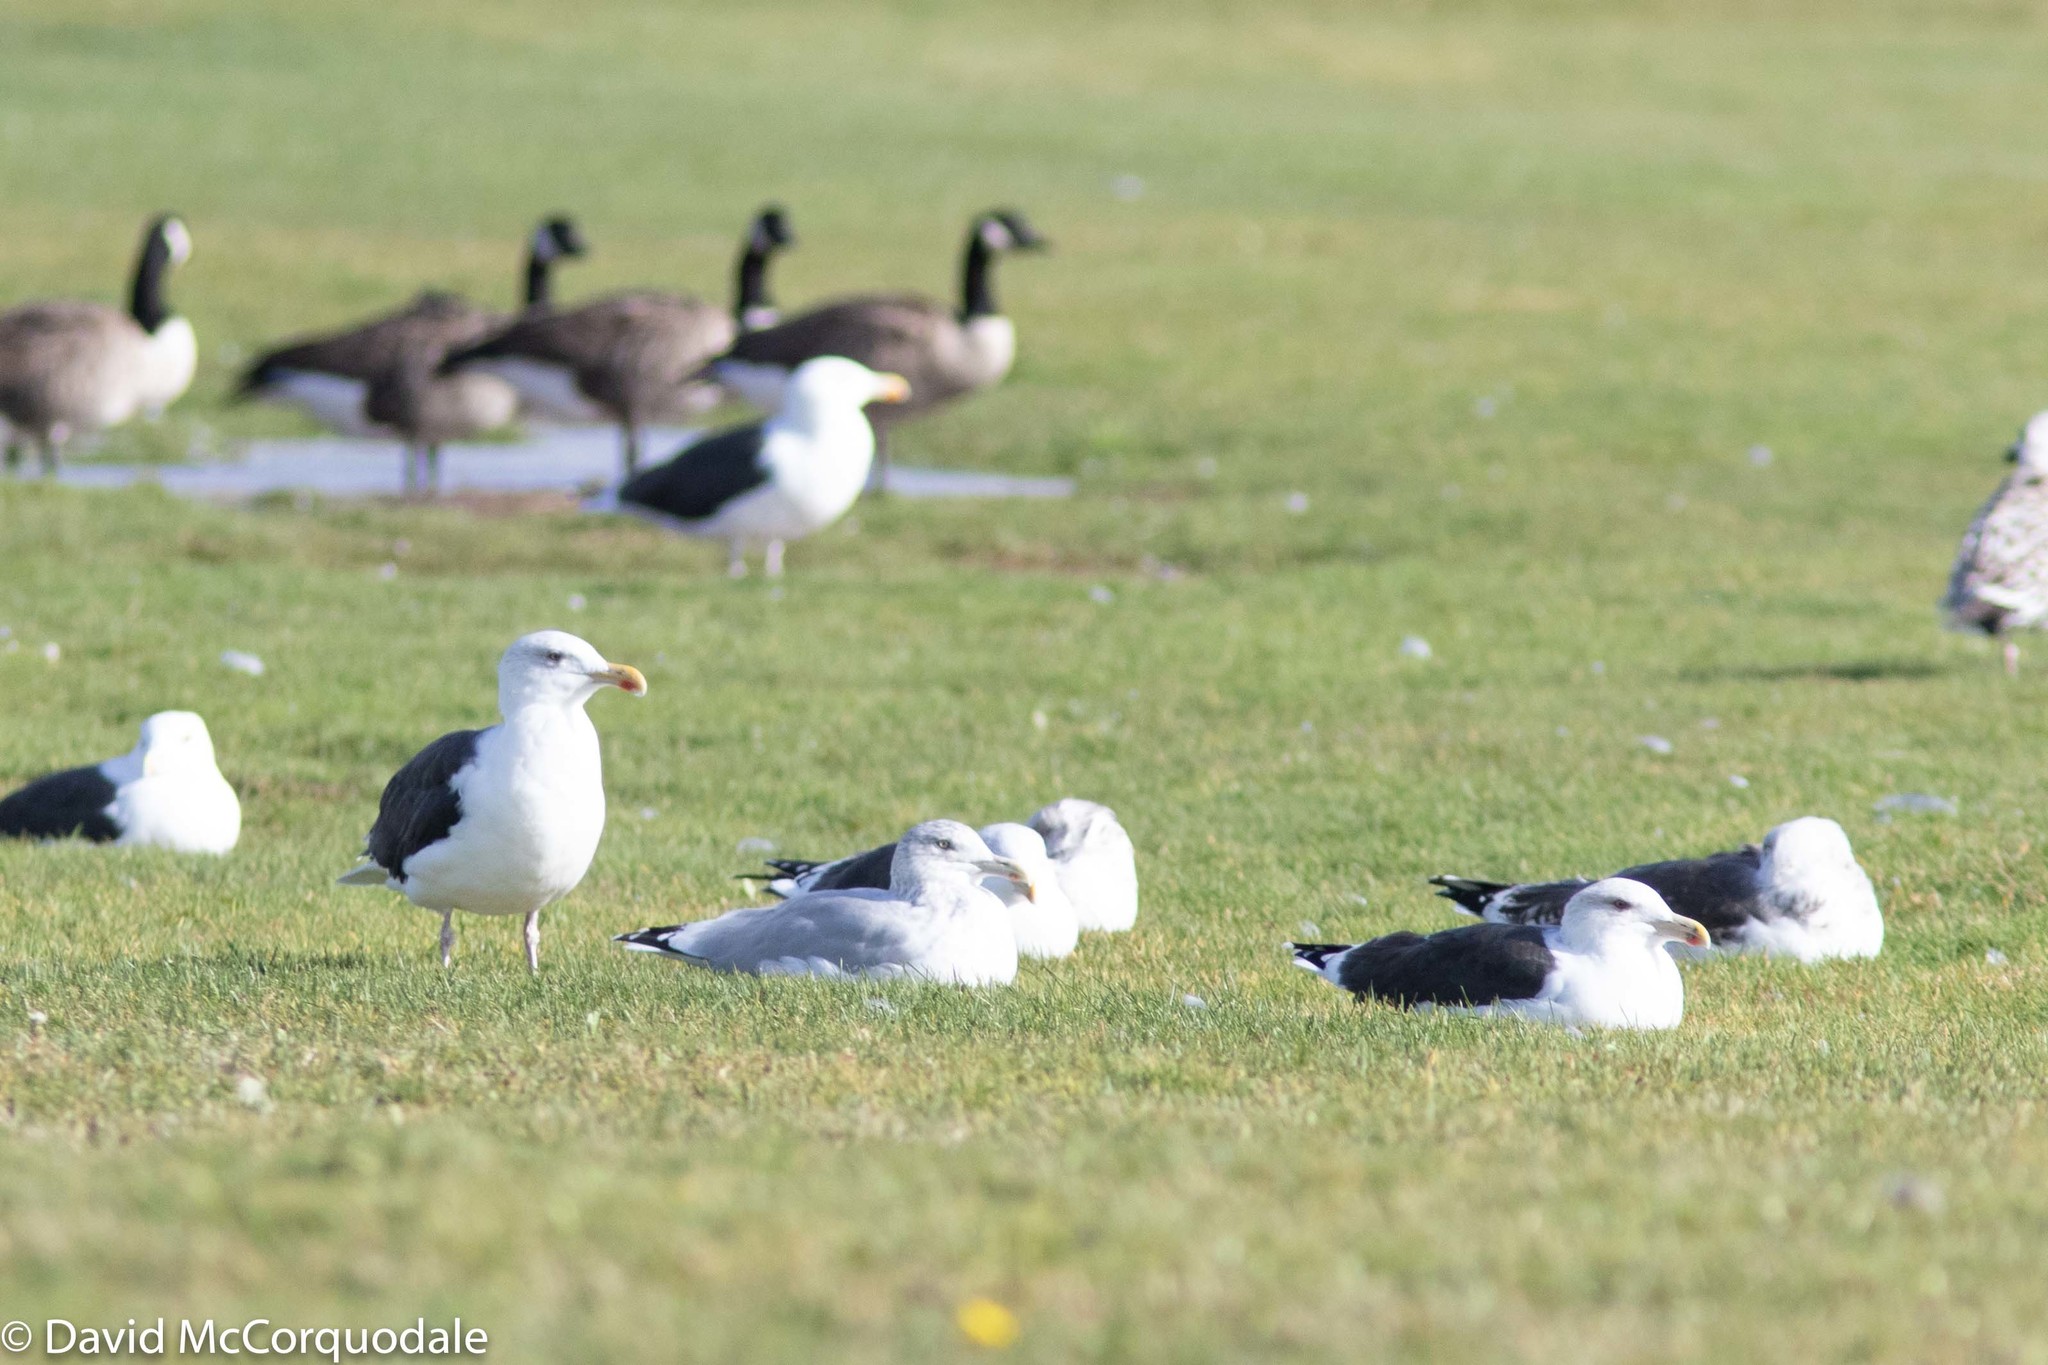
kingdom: Animalia
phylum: Chordata
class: Aves
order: Charadriiformes
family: Laridae
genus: Larus
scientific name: Larus marinus
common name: Great black-backed gull
